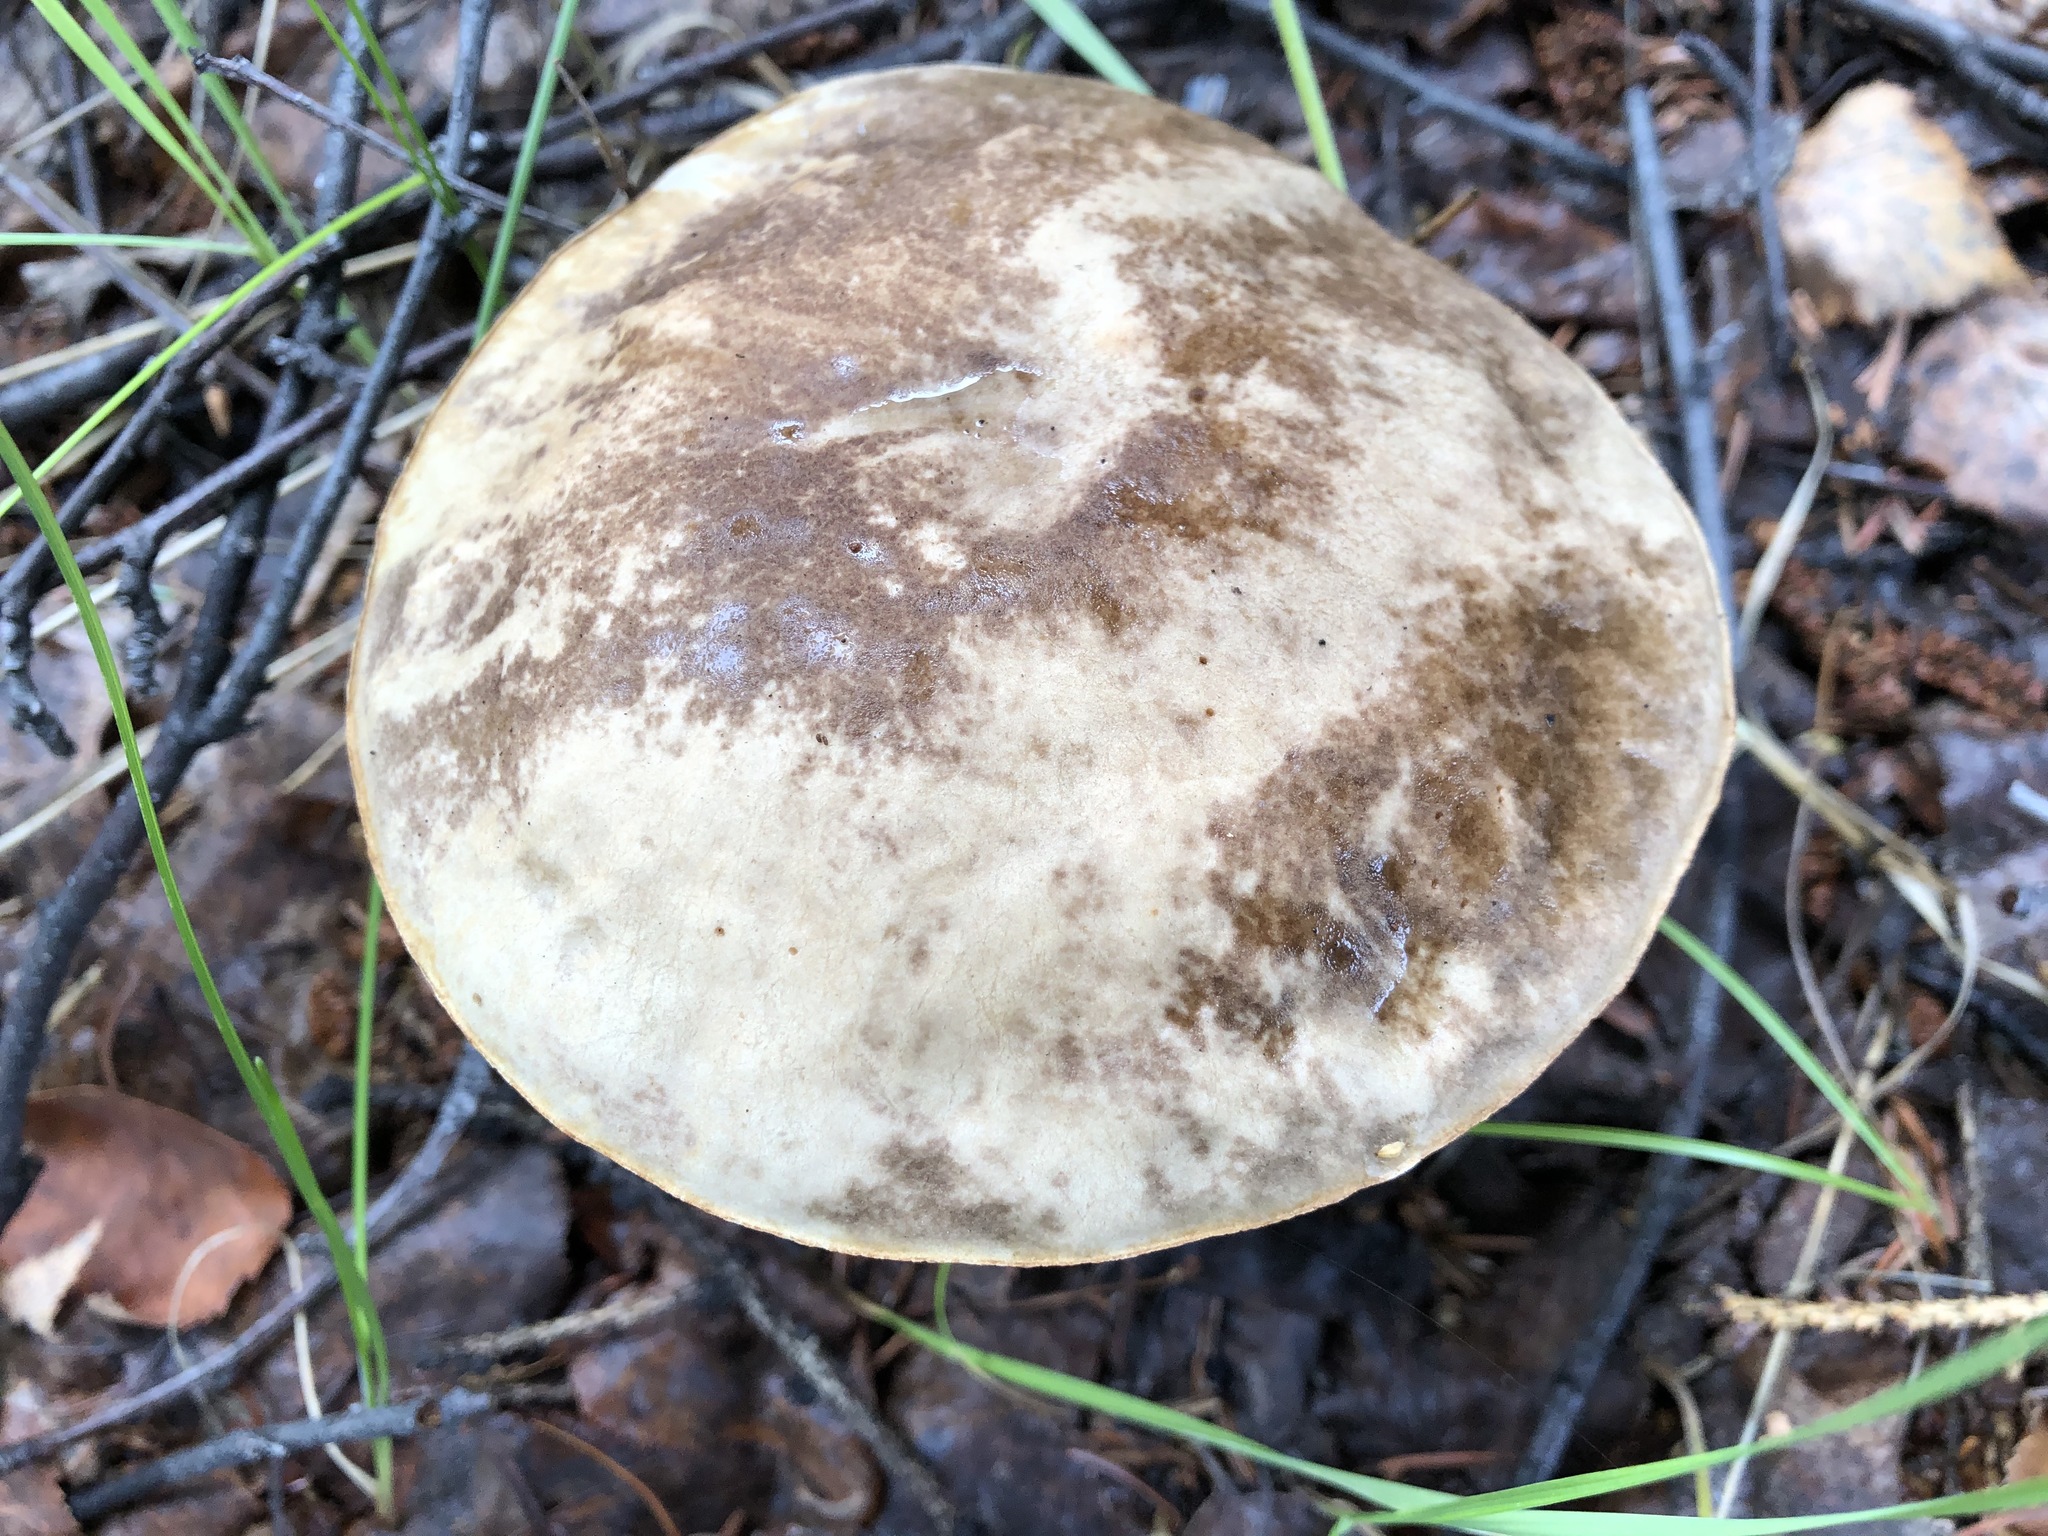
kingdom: Fungi
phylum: Basidiomycota
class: Agaricomycetes
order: Boletales
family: Boletaceae
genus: Leccinum
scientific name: Leccinum alaskanum
